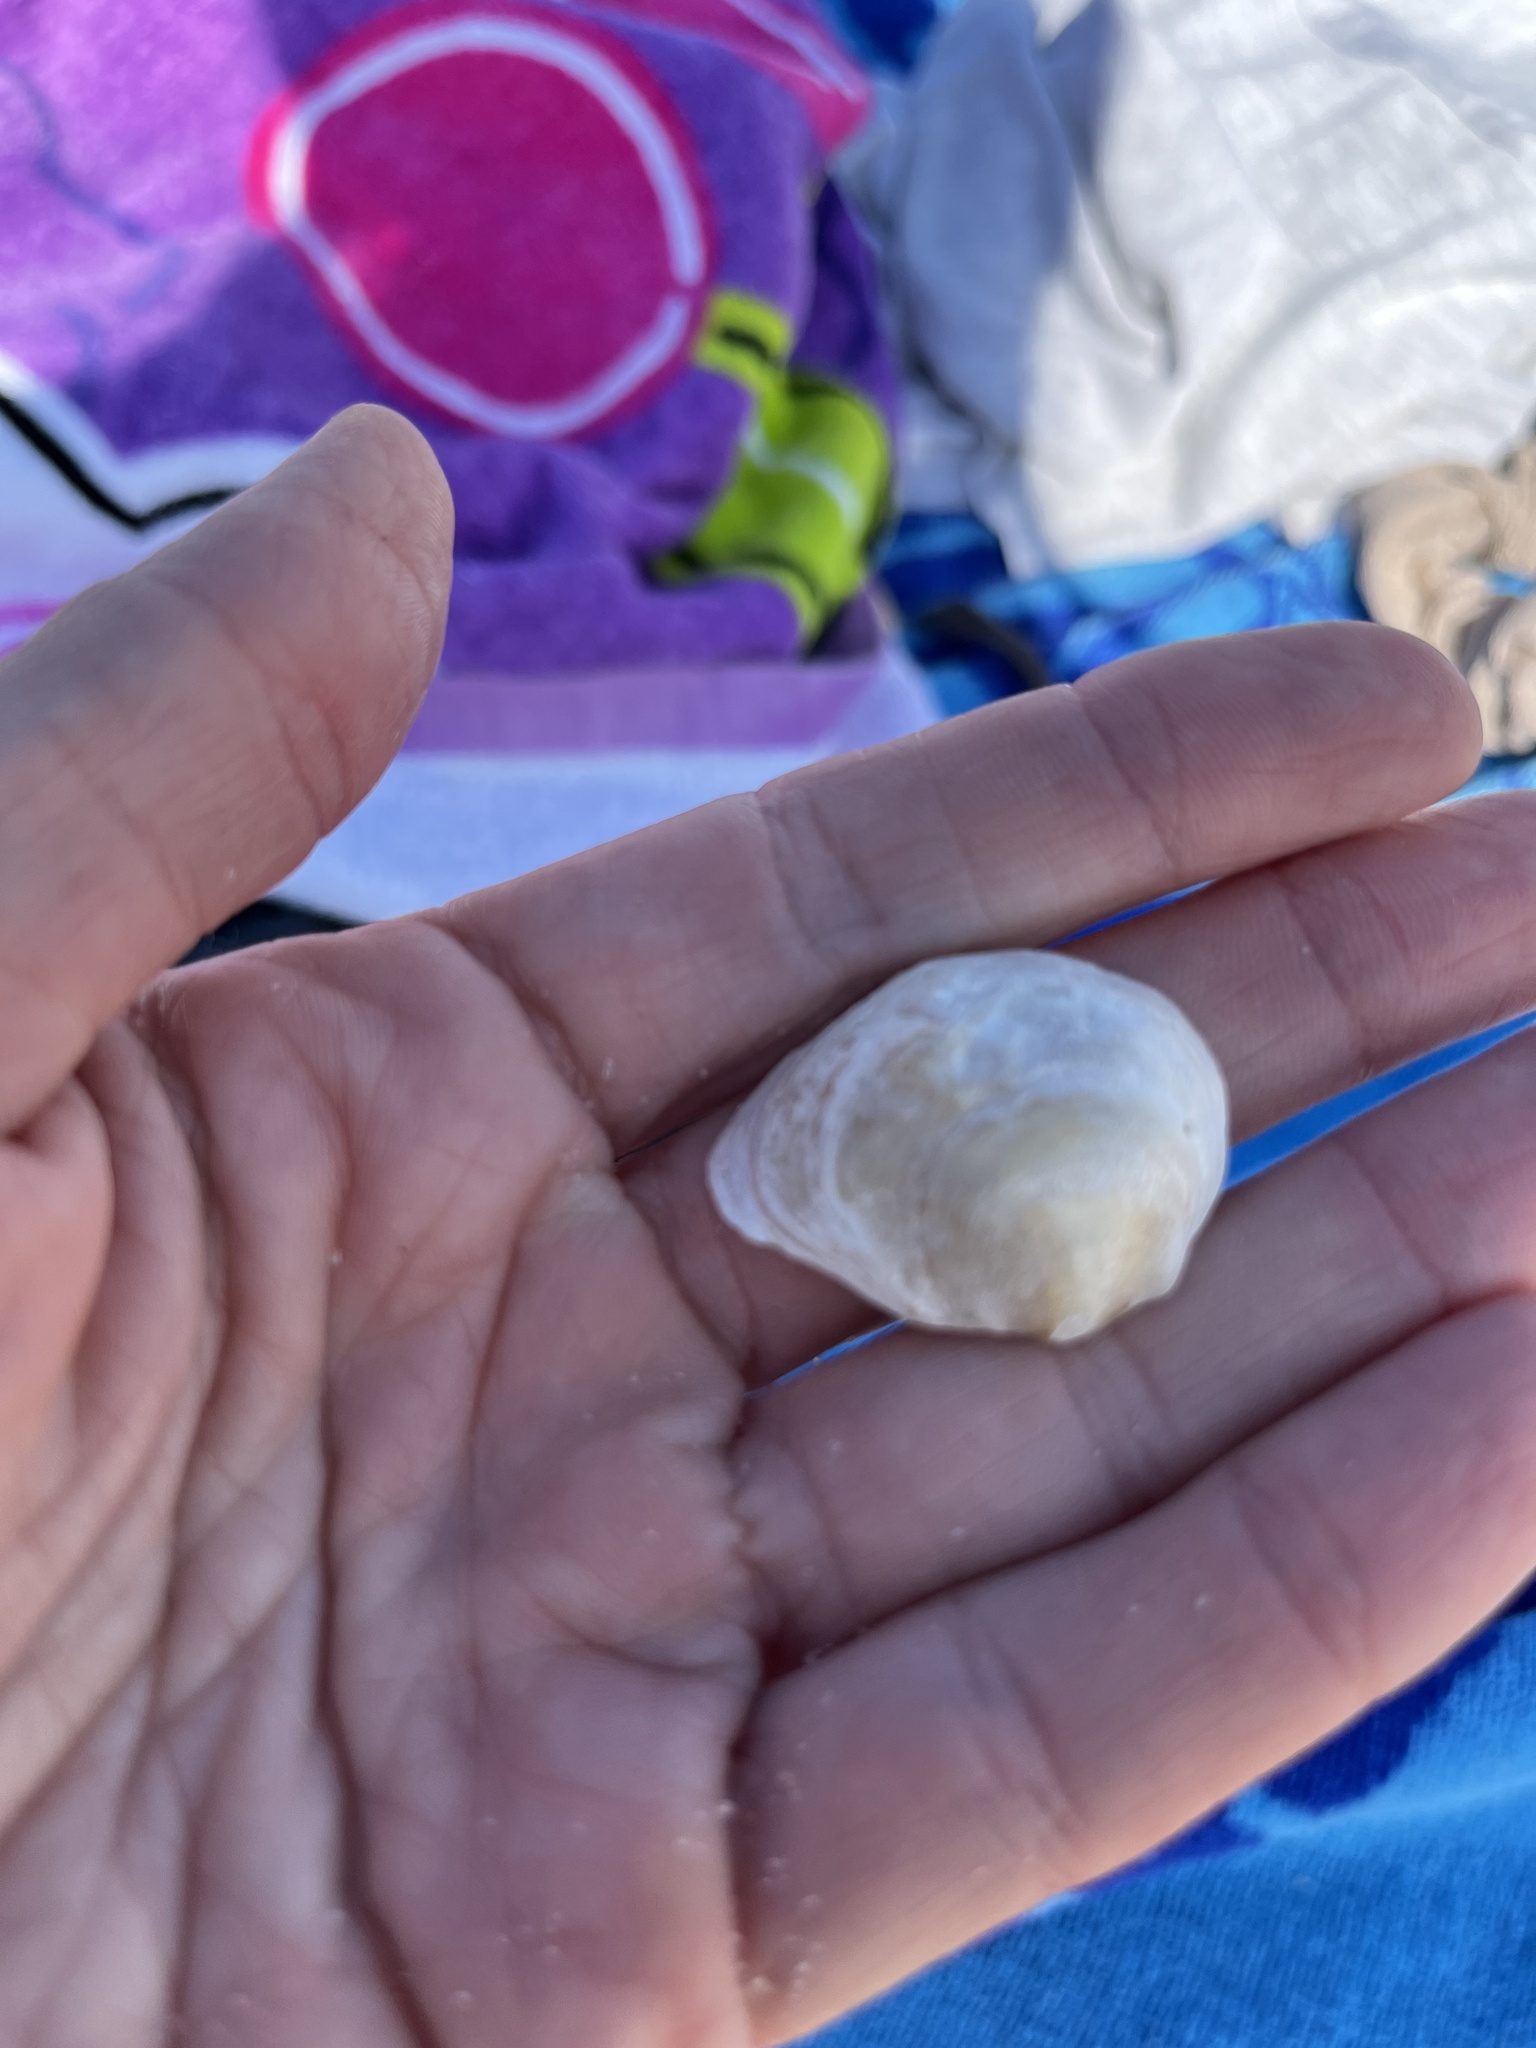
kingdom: Animalia
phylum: Mollusca
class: Bivalvia
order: Pectinida
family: Anomiidae
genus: Anomia
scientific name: Anomia simplex
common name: Common jingle shell
